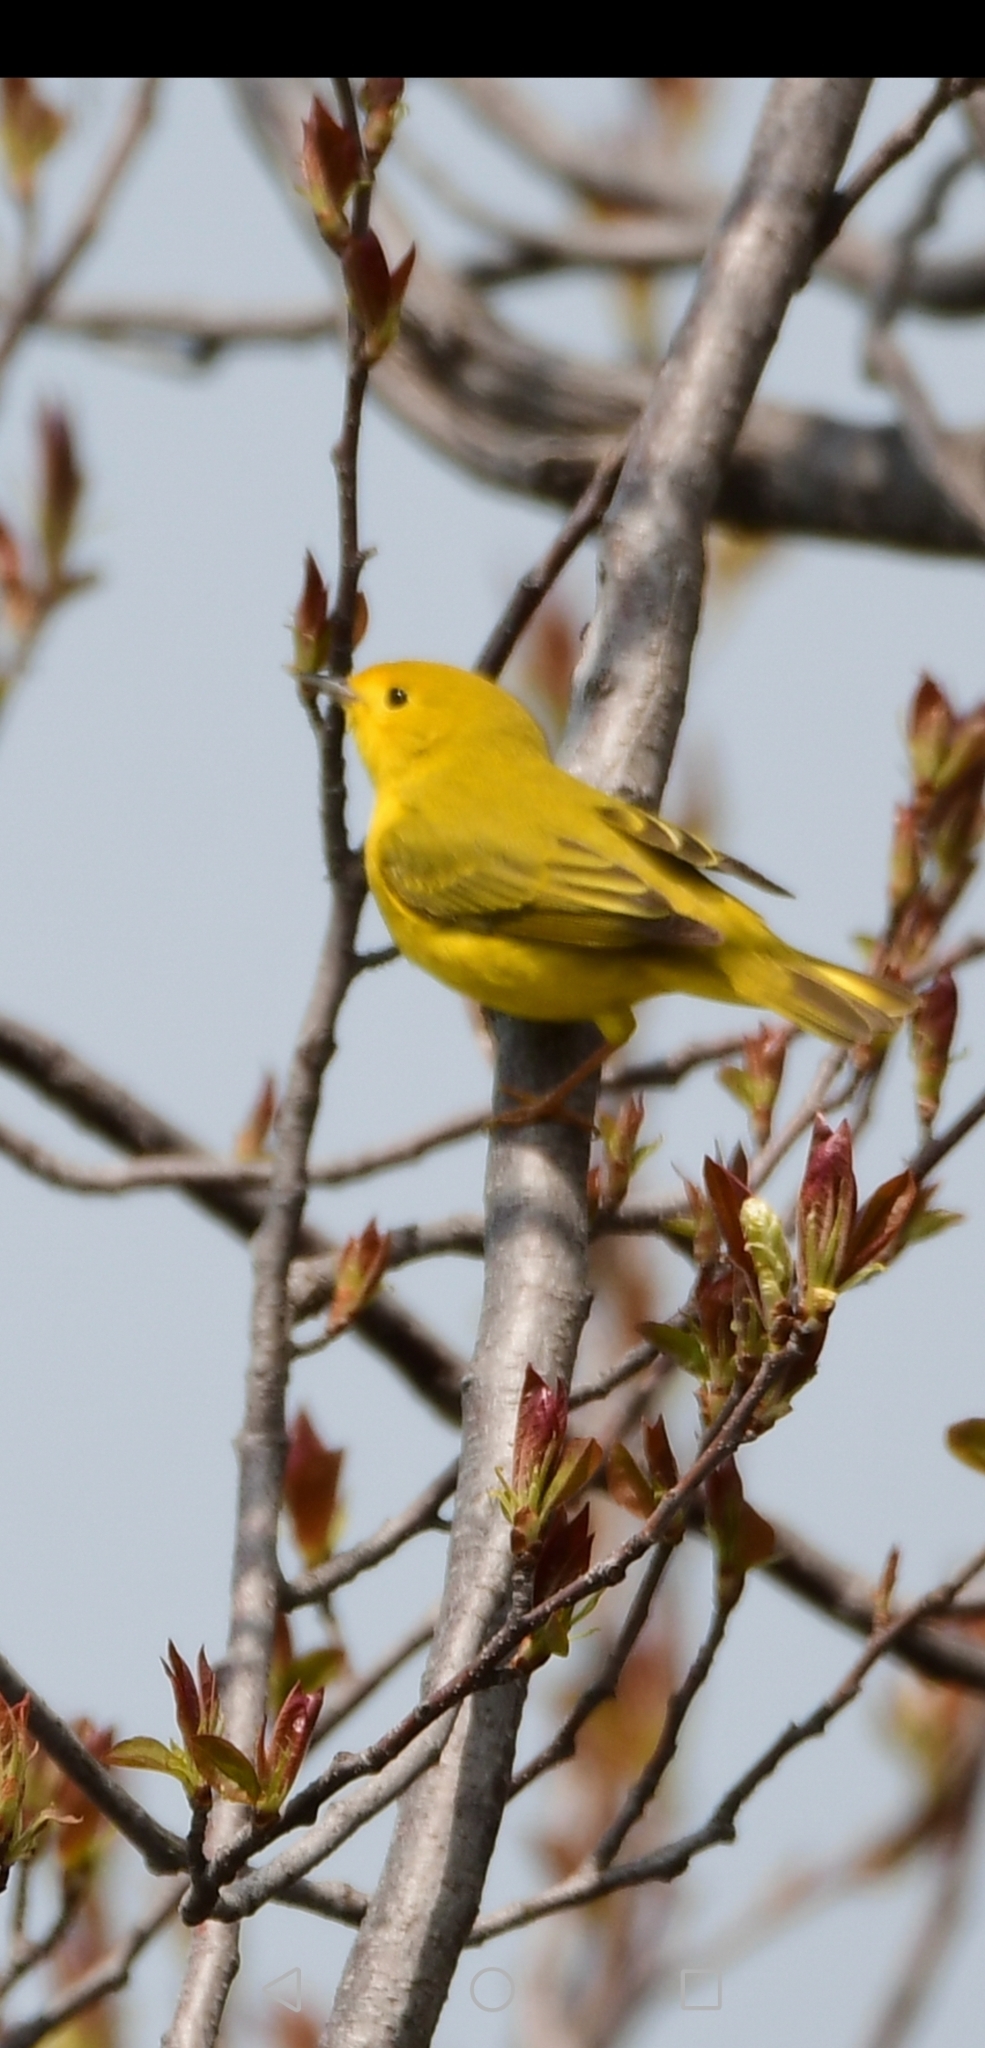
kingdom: Animalia
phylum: Chordata
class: Aves
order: Passeriformes
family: Parulidae
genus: Setophaga
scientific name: Setophaga petechia
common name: Yellow warbler
